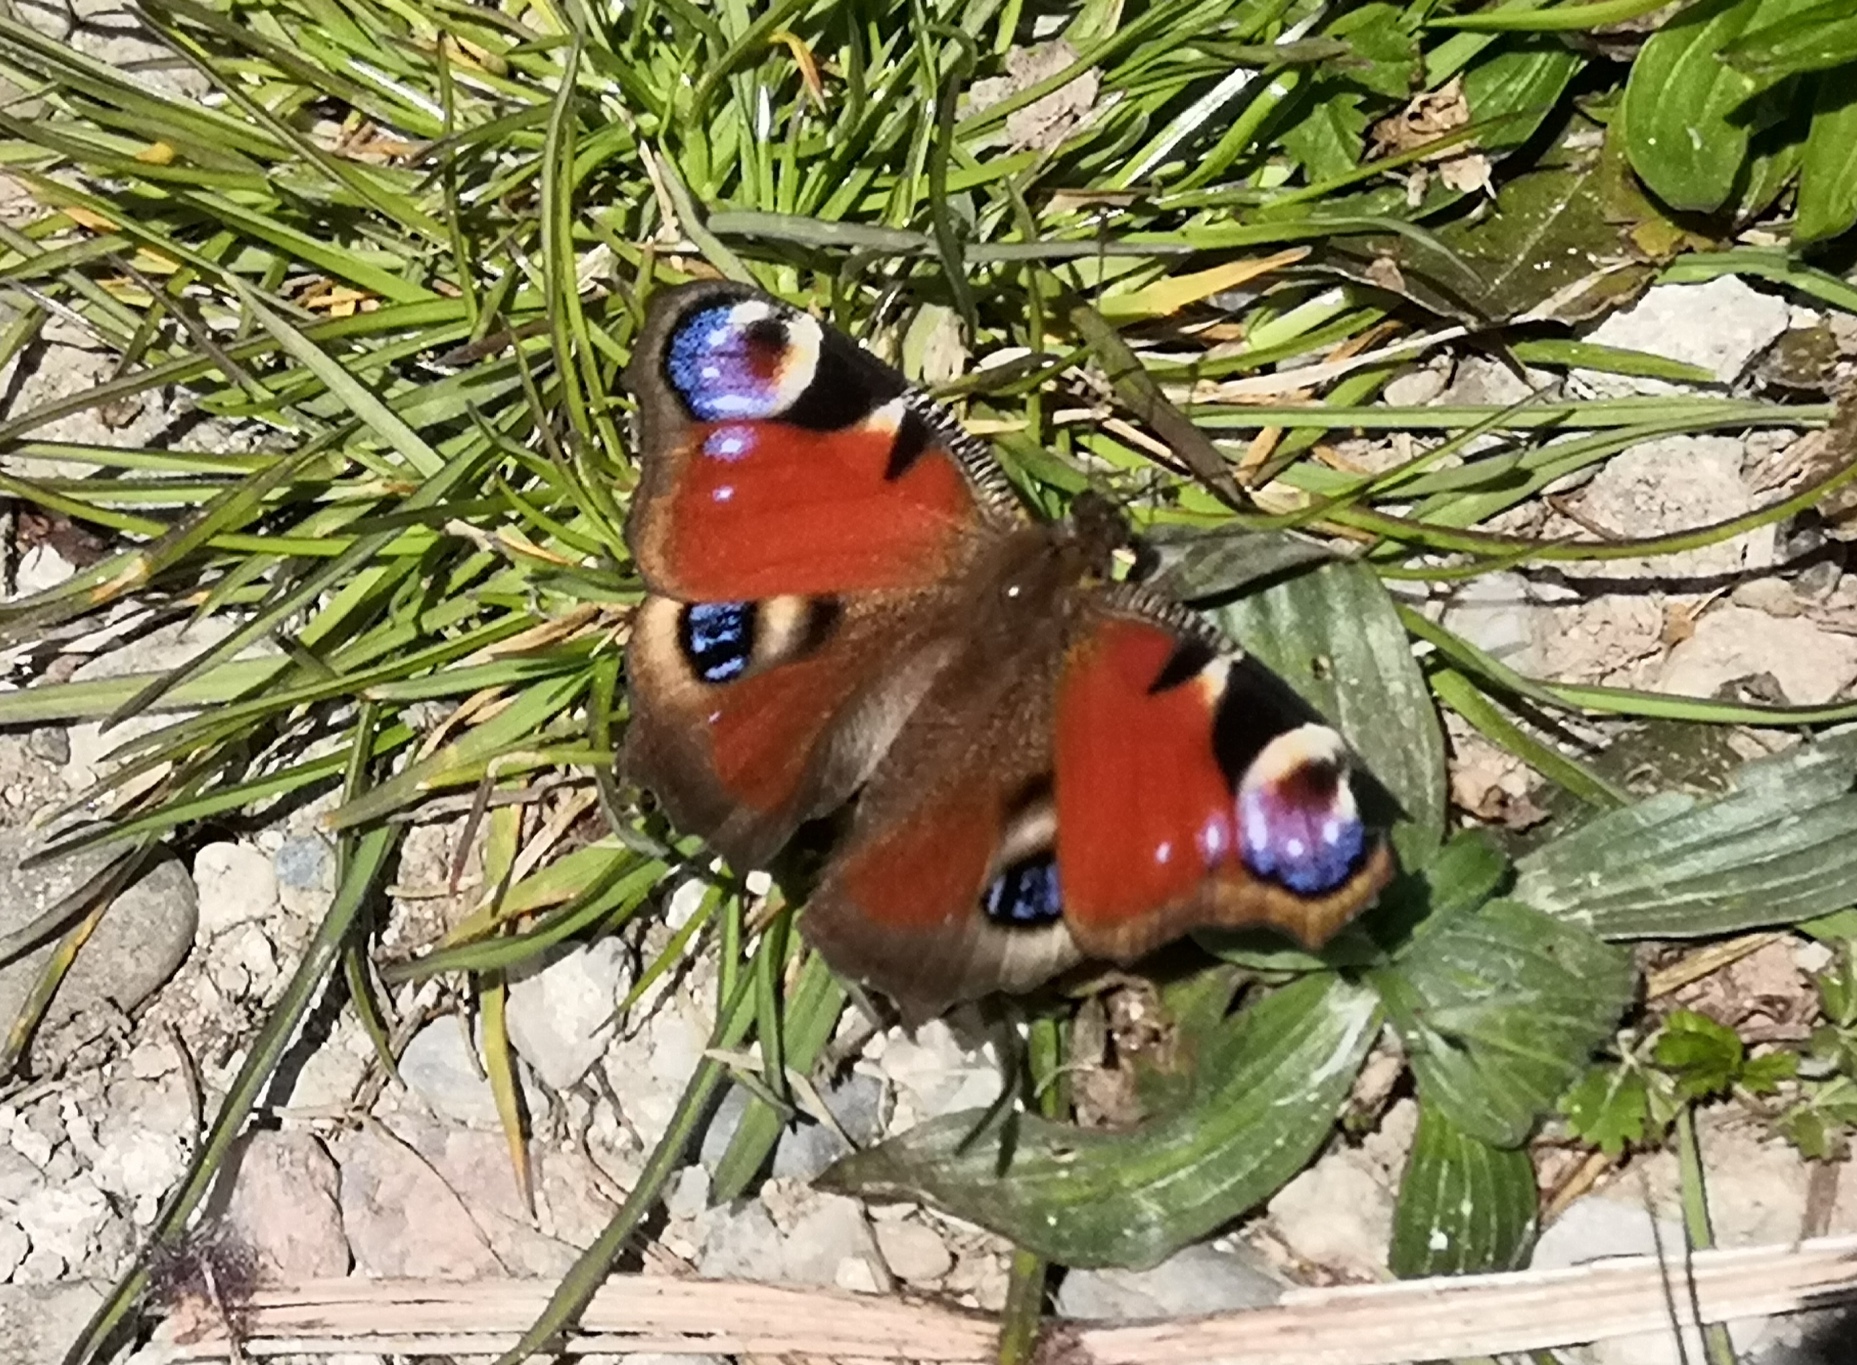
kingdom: Animalia
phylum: Arthropoda
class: Insecta
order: Lepidoptera
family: Nymphalidae
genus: Aglais
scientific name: Aglais io
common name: Peacock
